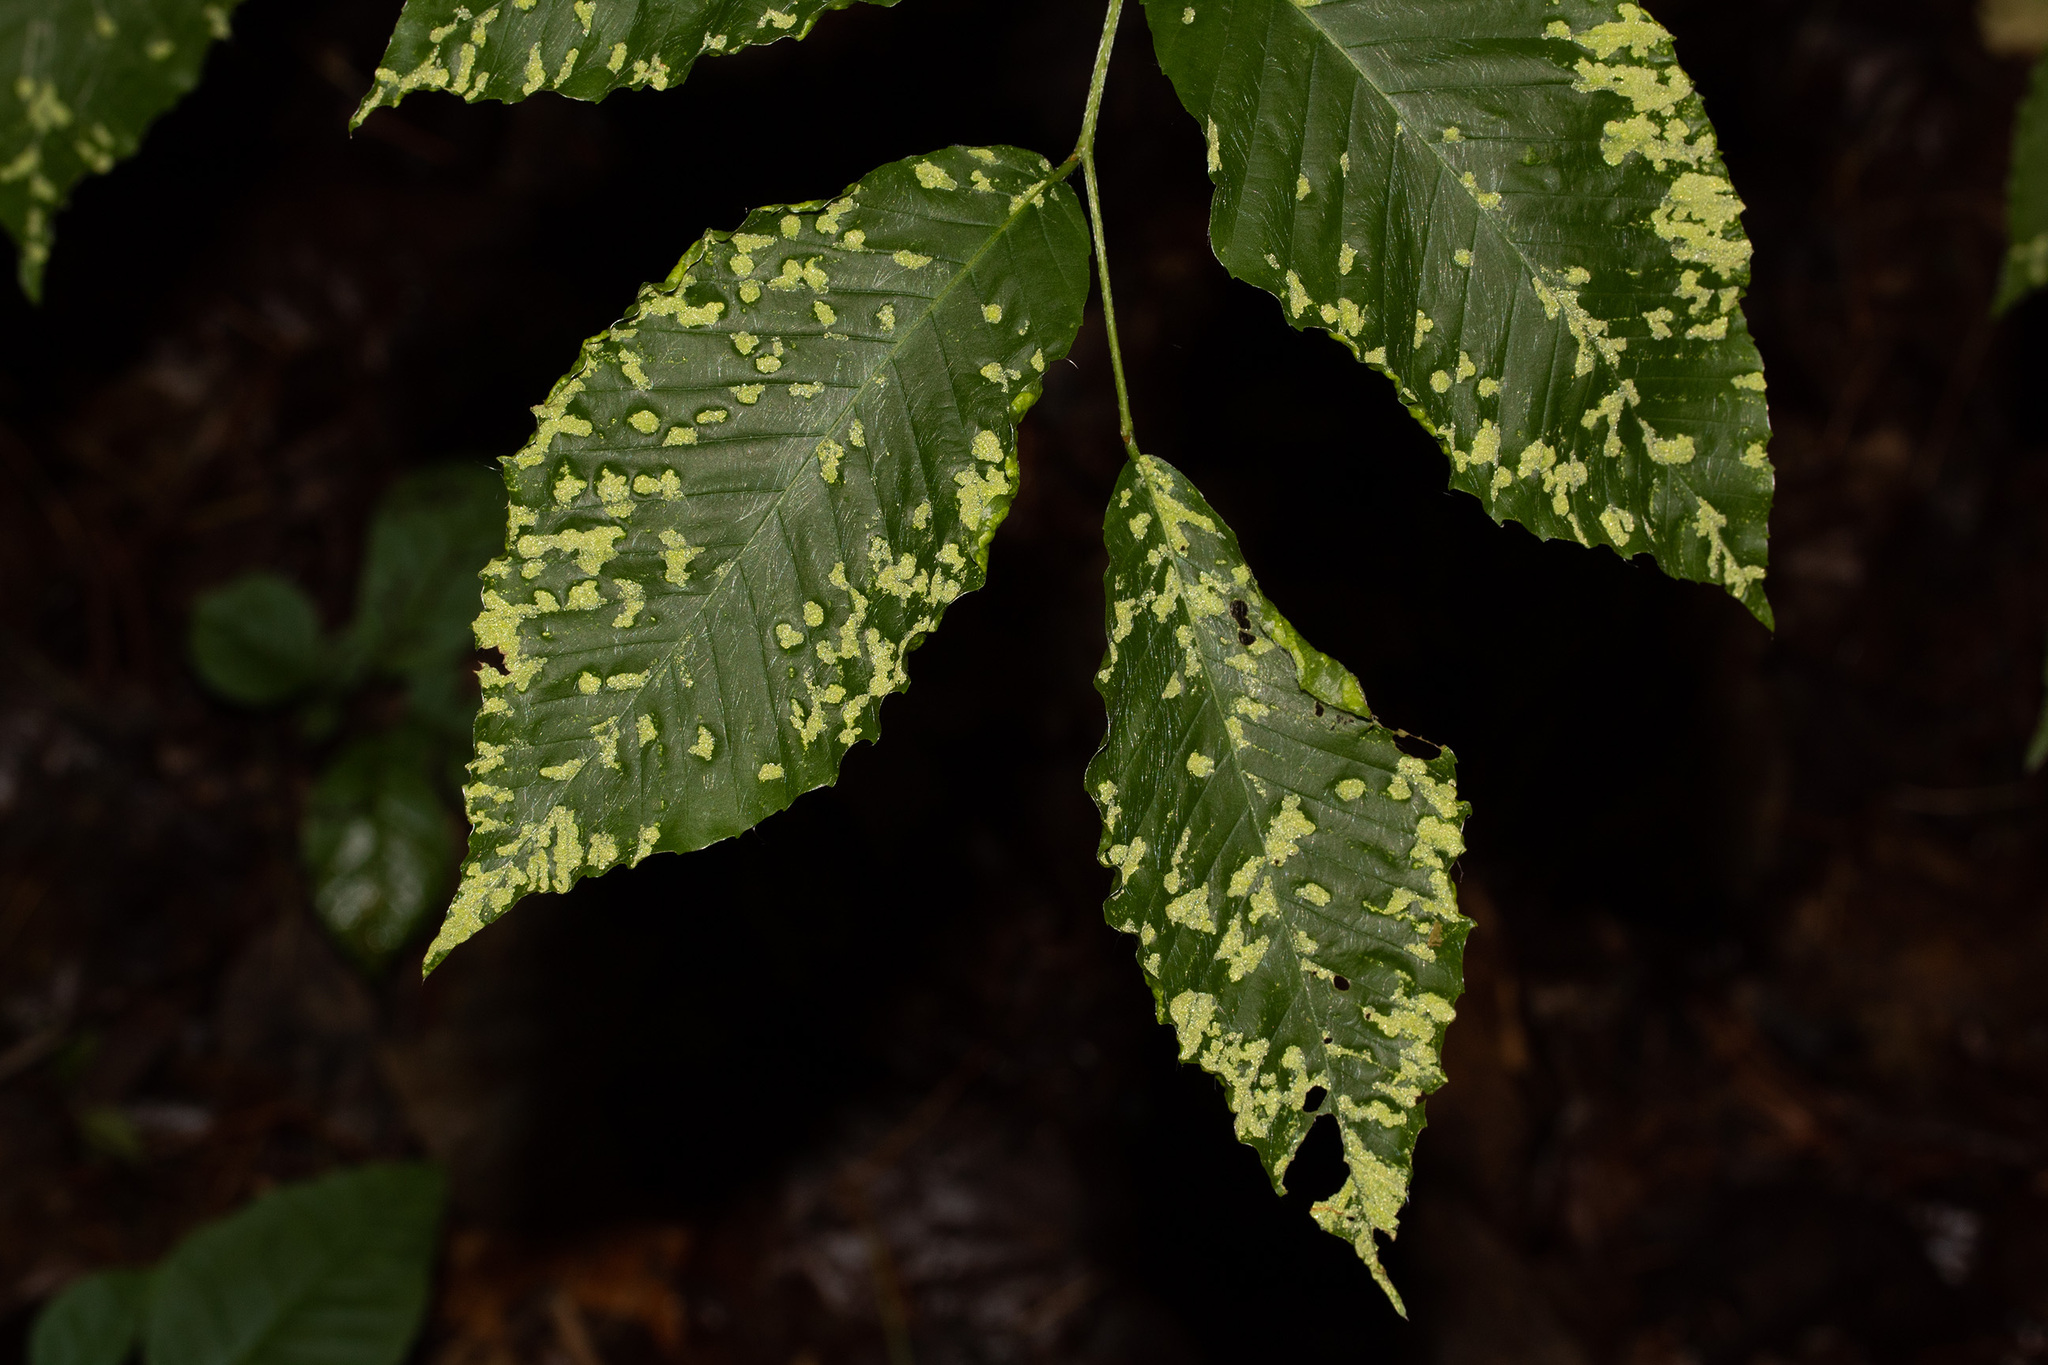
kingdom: Animalia
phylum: Arthropoda
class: Arachnida
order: Trombidiformes
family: Eriophyidae
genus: Acalitus
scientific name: Acalitus
